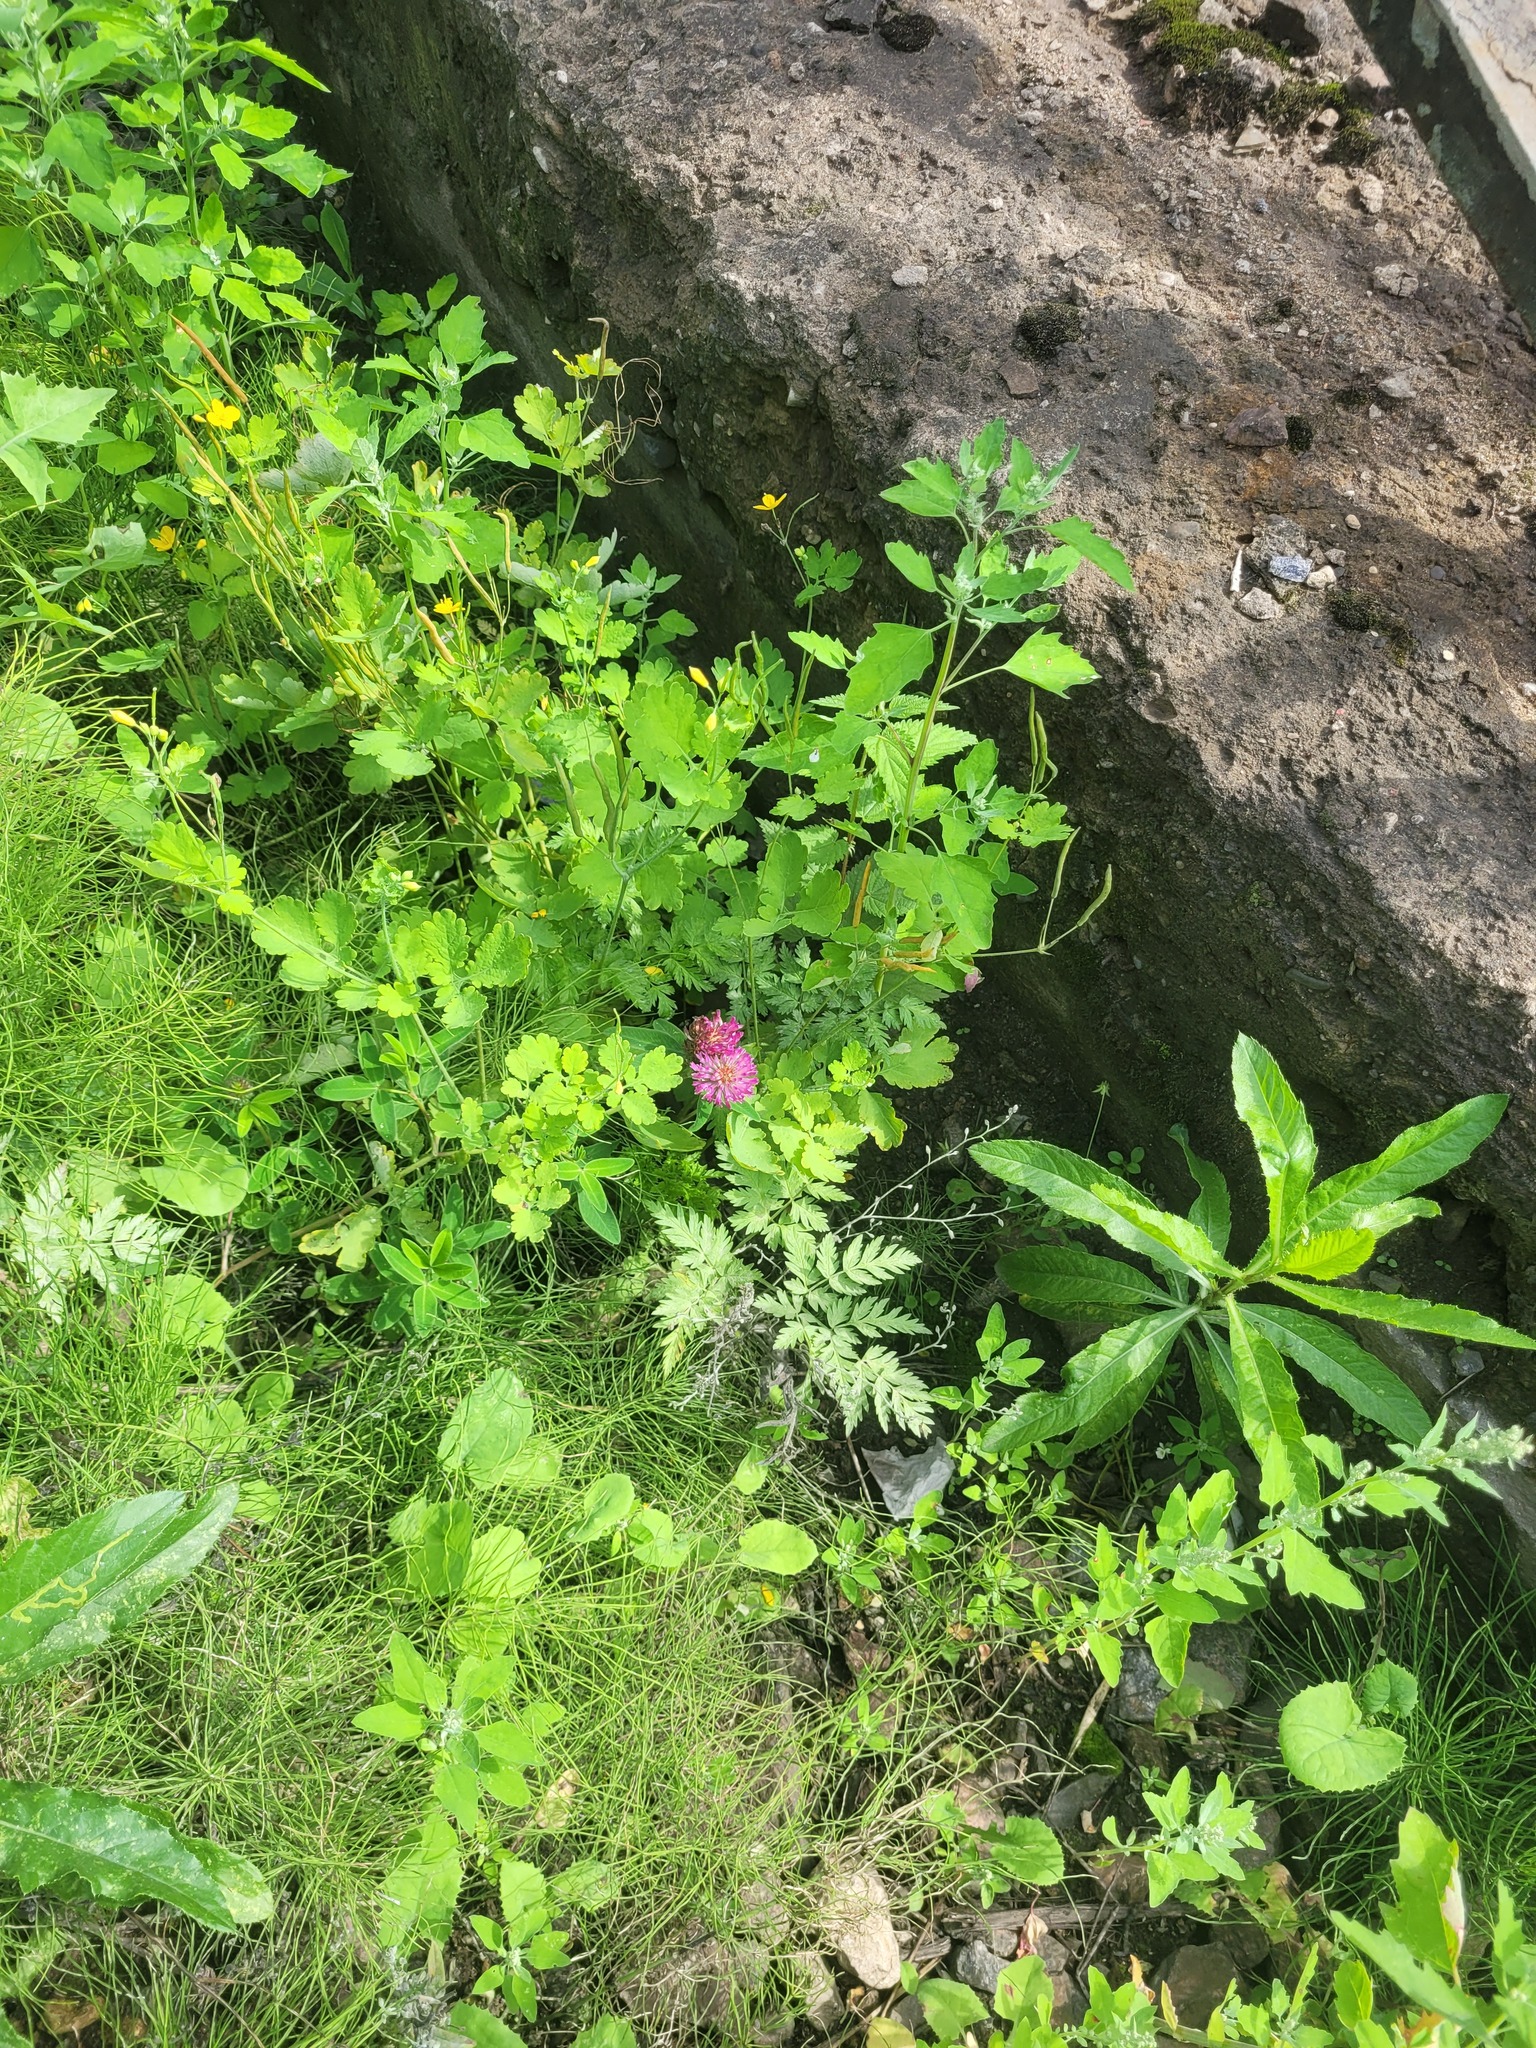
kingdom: Plantae
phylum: Tracheophyta
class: Magnoliopsida
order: Fabales
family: Fabaceae
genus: Trifolium
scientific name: Trifolium medium
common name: Zigzag clover
